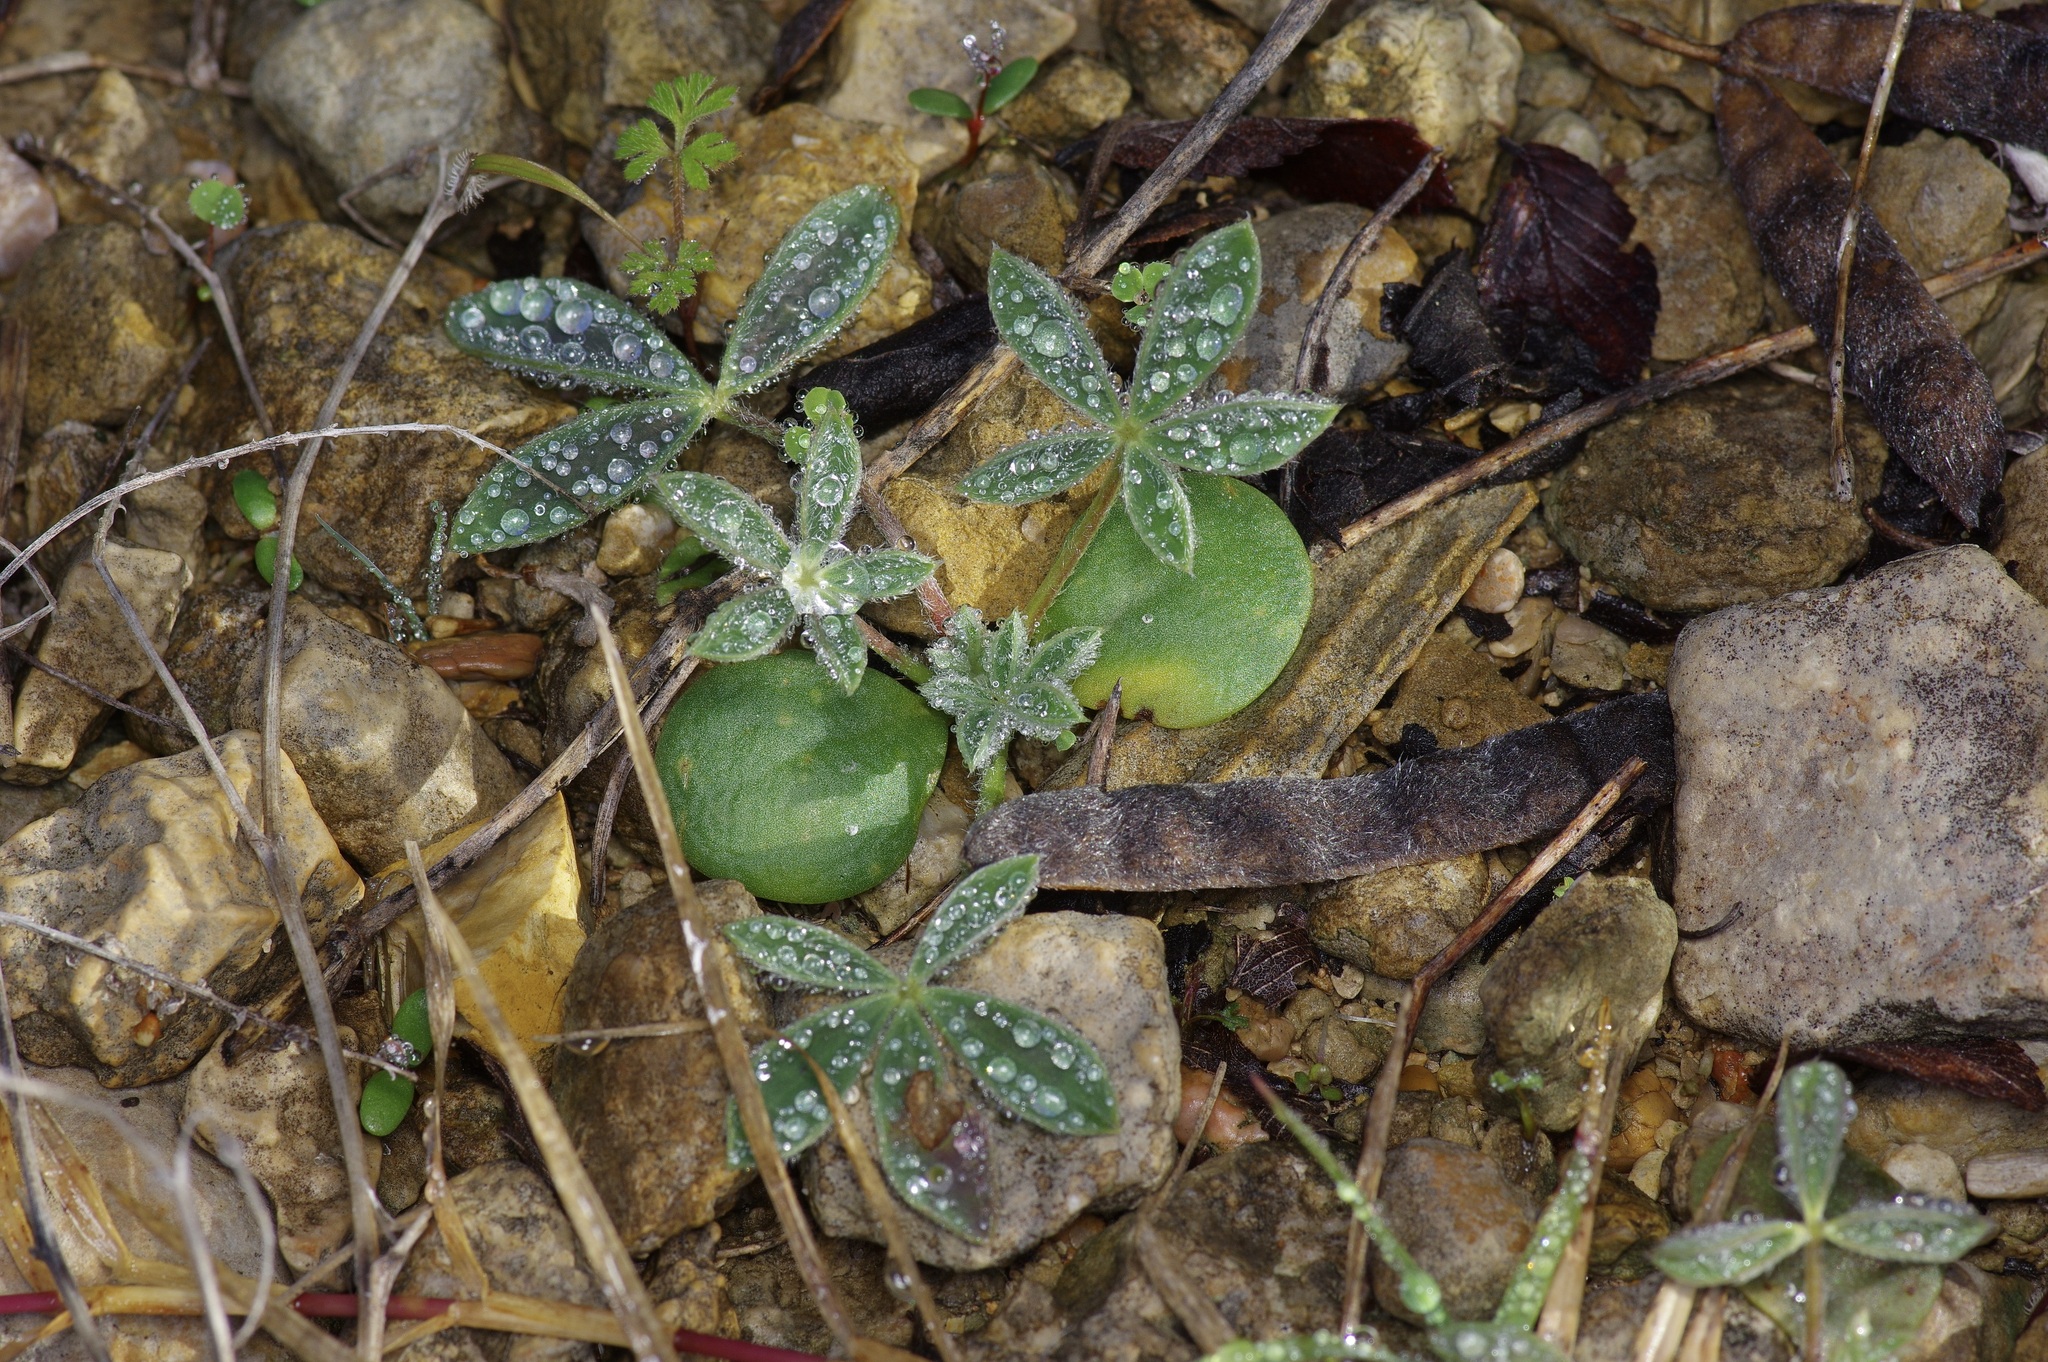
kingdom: Plantae
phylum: Tracheophyta
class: Magnoliopsida
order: Fabales
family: Fabaceae
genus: Lupinus
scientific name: Lupinus texensis
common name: Texas bluebonnet
